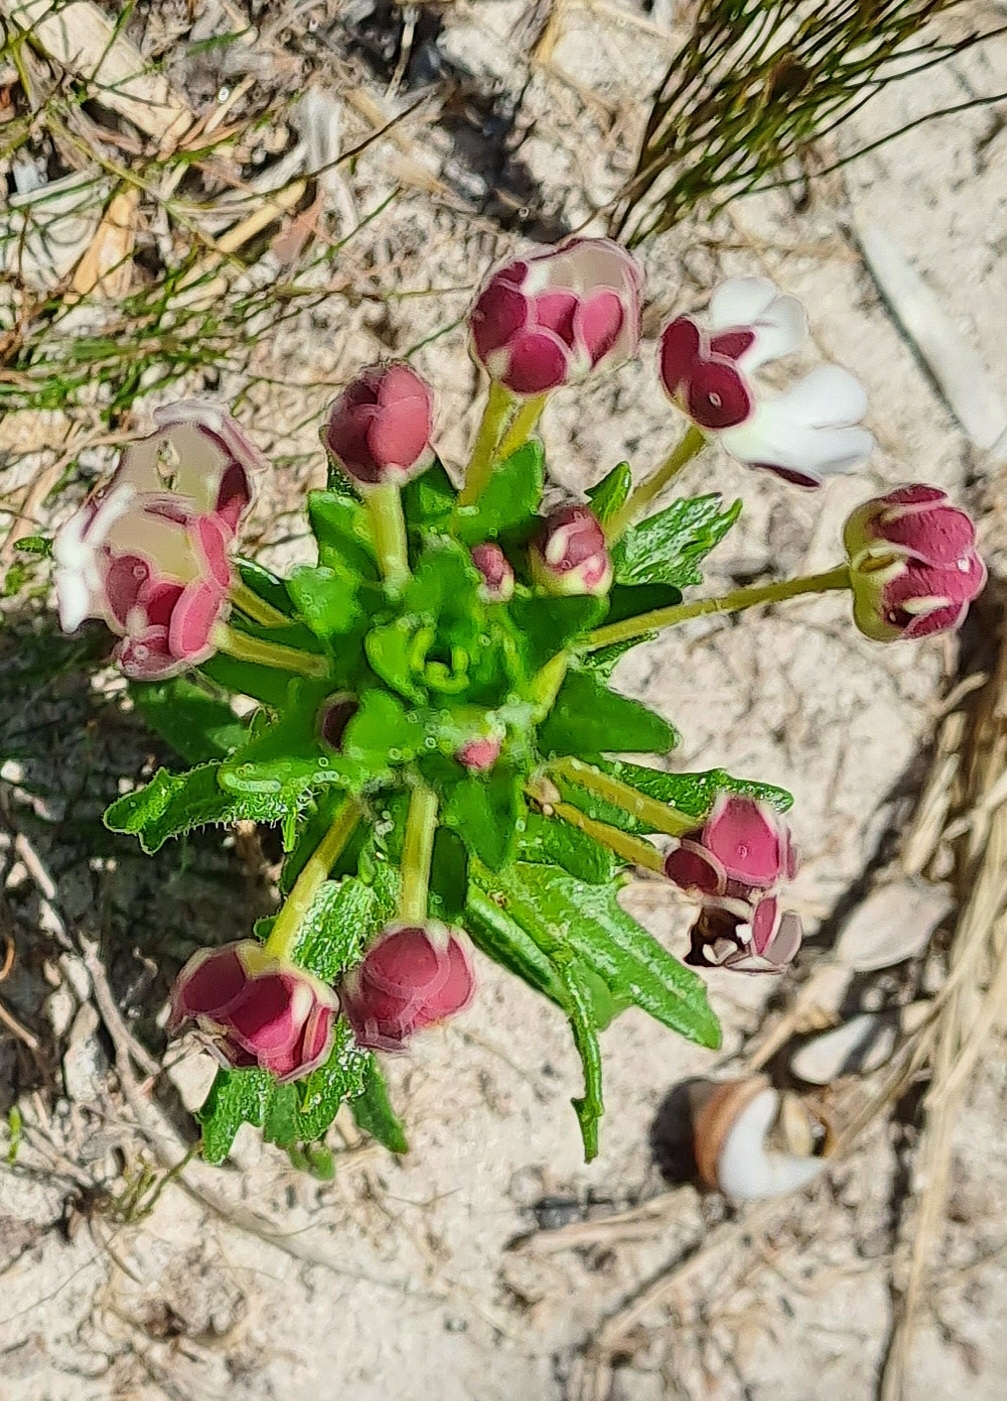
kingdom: Plantae
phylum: Tracheophyta
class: Magnoliopsida
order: Lamiales
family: Scrophulariaceae
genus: Zaluzianskya
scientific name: Zaluzianskya capensis
